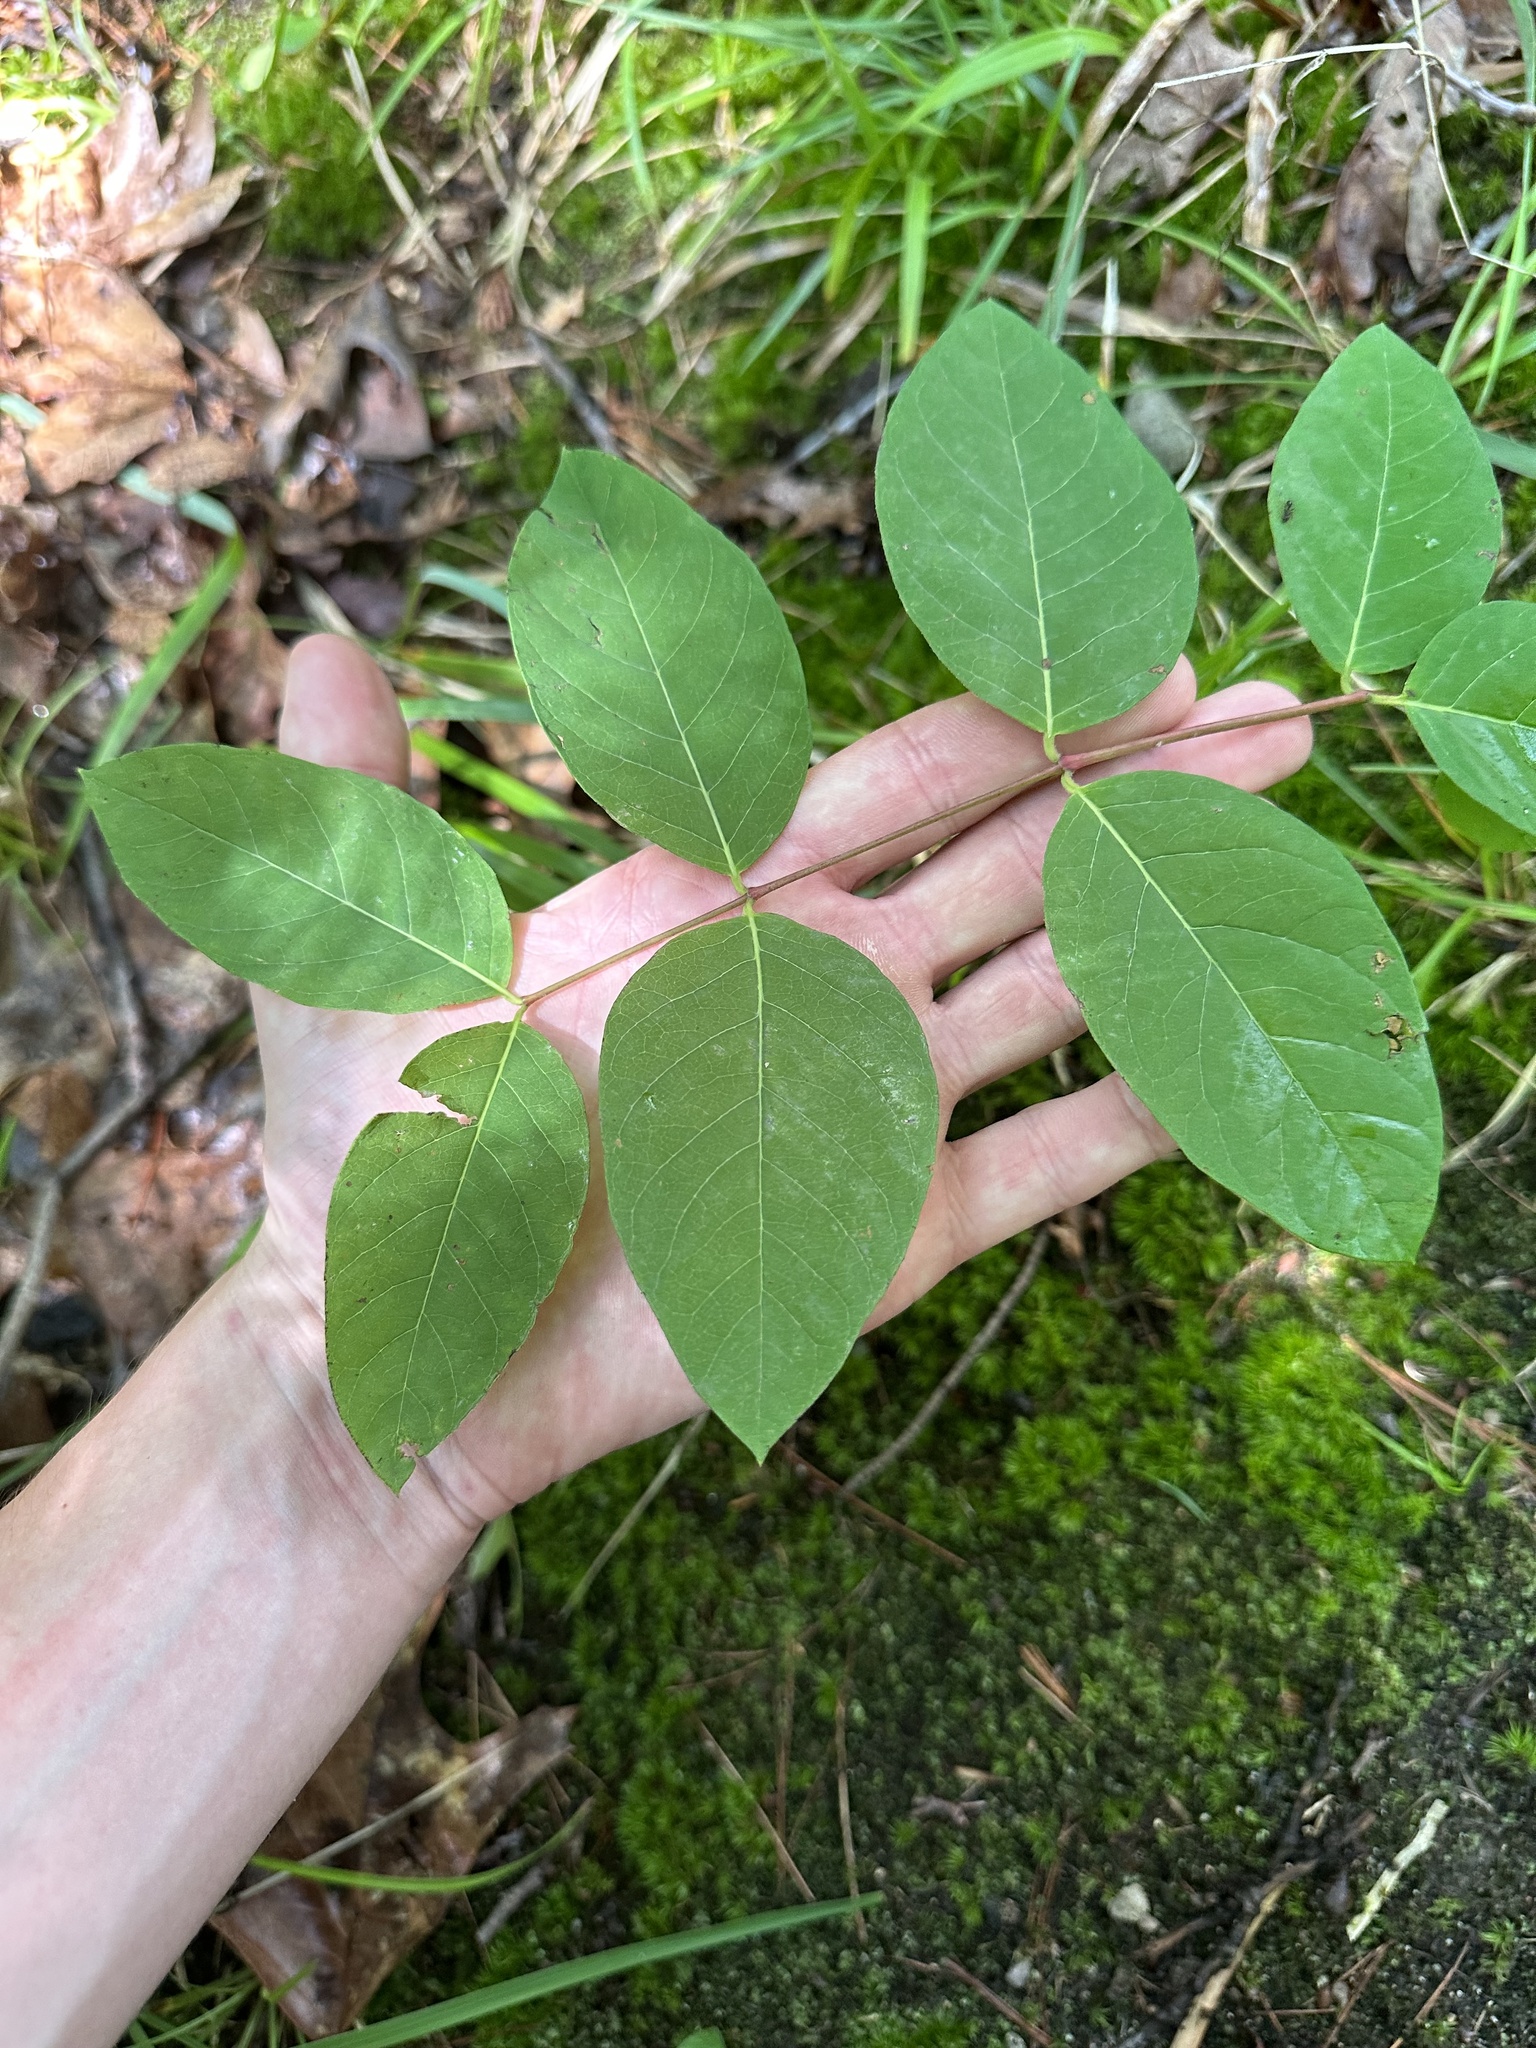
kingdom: Plantae
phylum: Tracheophyta
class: Magnoliopsida
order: Gentianales
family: Apocynaceae
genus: Apocynum
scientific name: Apocynum androsaemifolium
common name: Spreading dogbane
